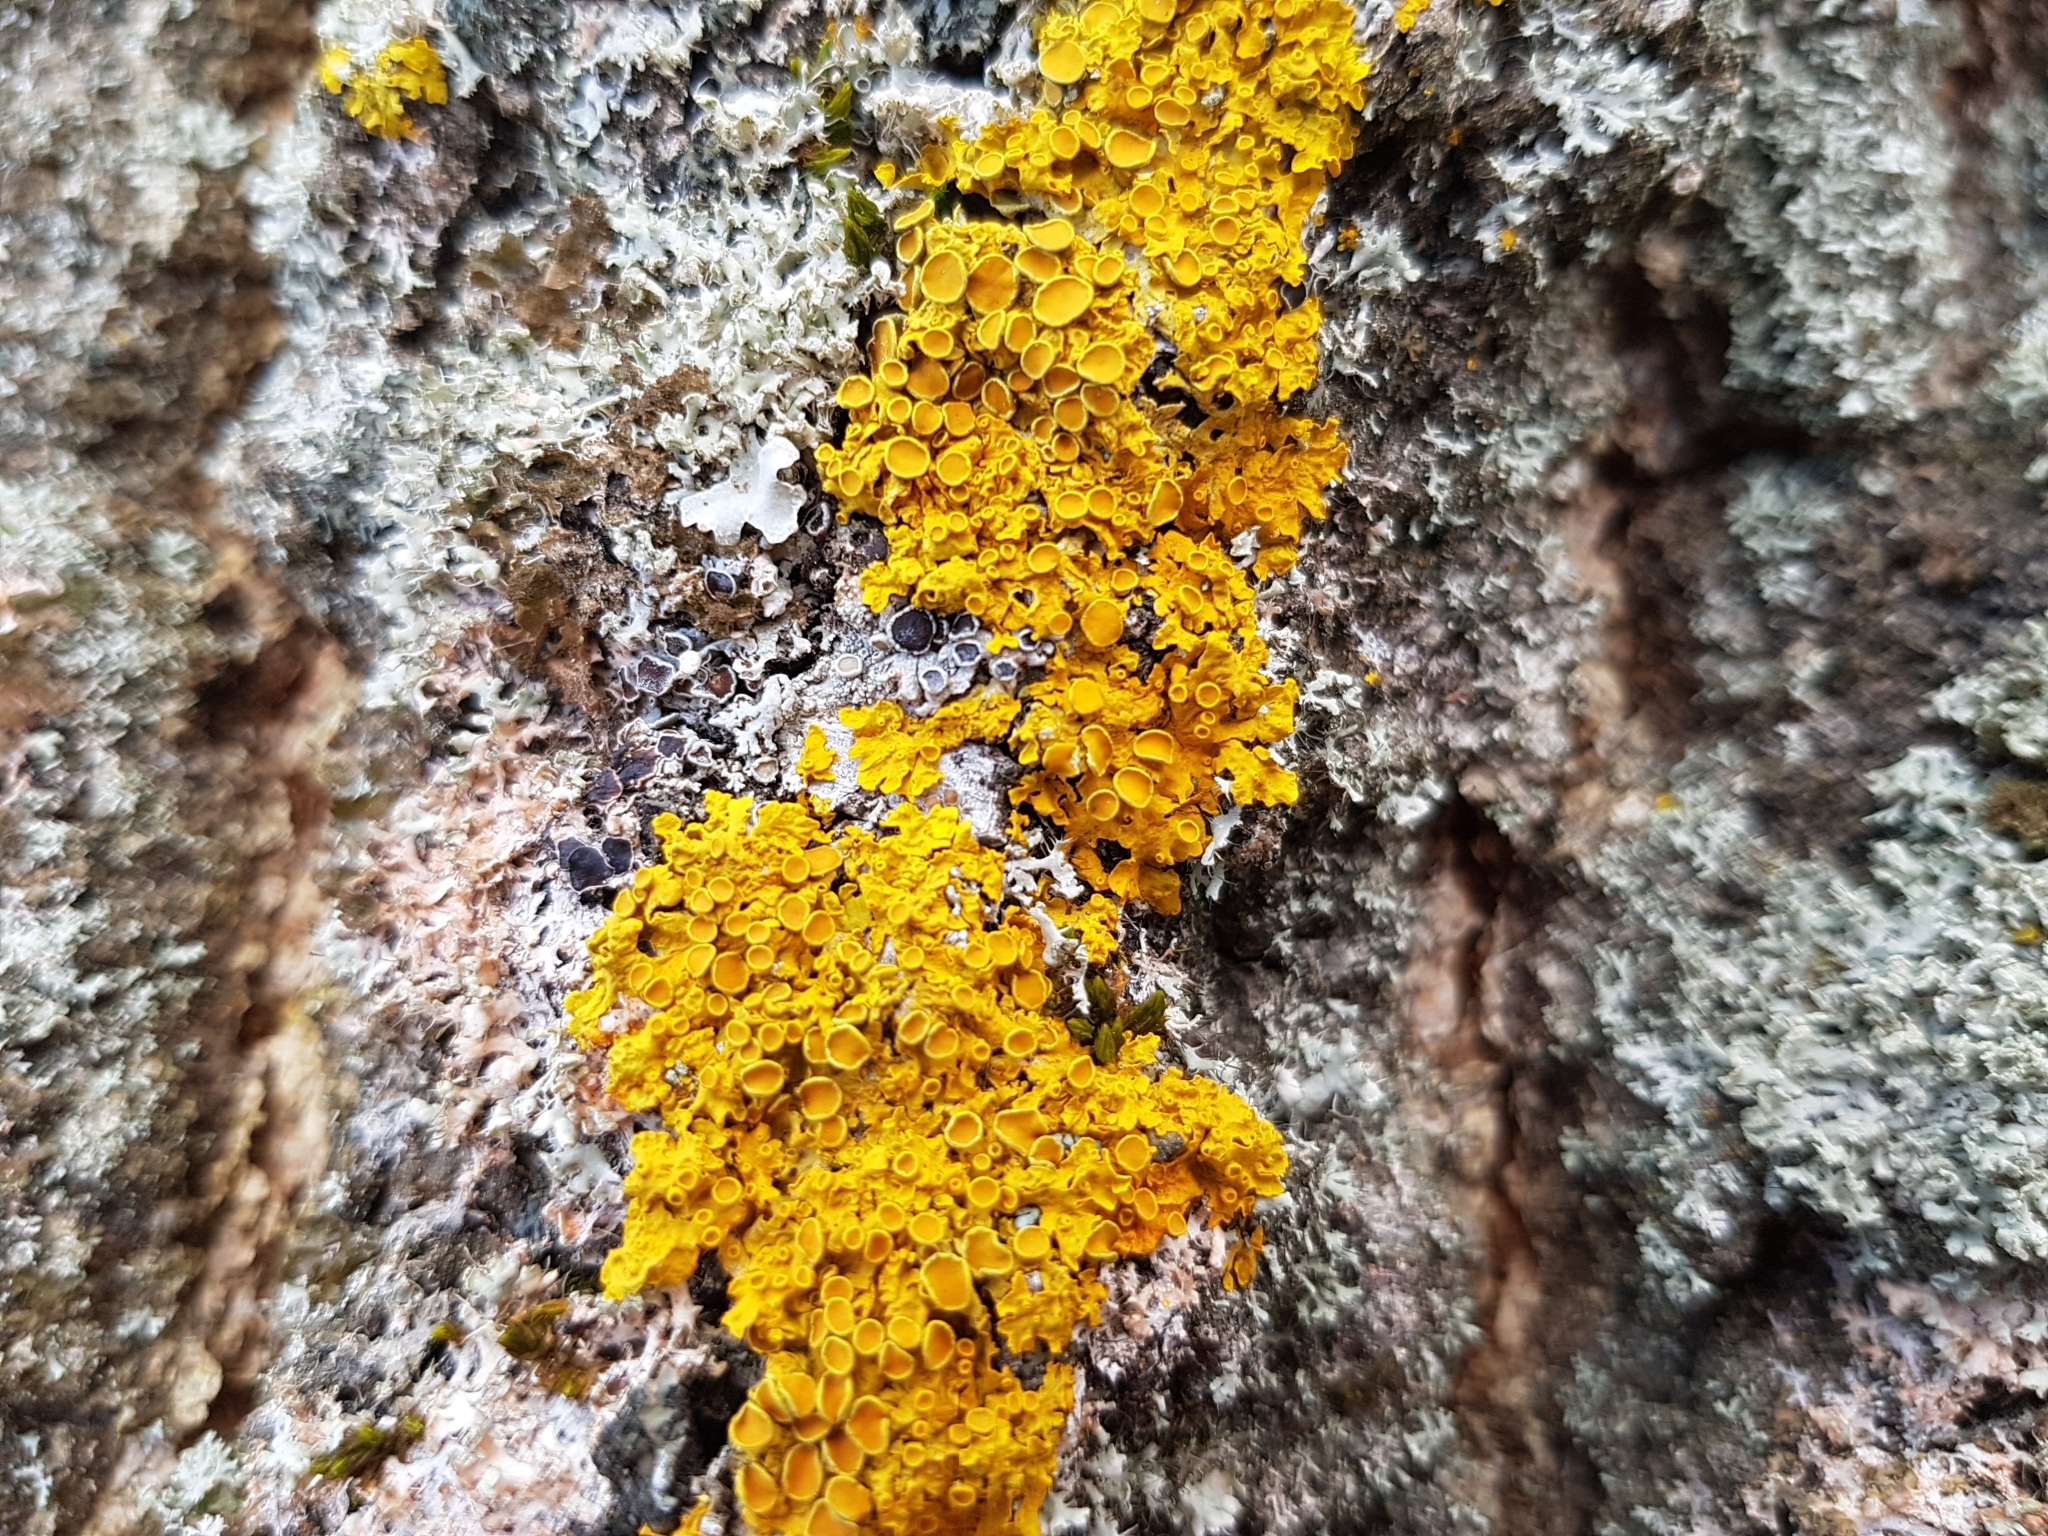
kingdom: Fungi
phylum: Ascomycota
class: Lecanoromycetes
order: Teloschistales
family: Teloschistaceae
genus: Xanthoria
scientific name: Xanthoria parietina
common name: Common orange lichen
